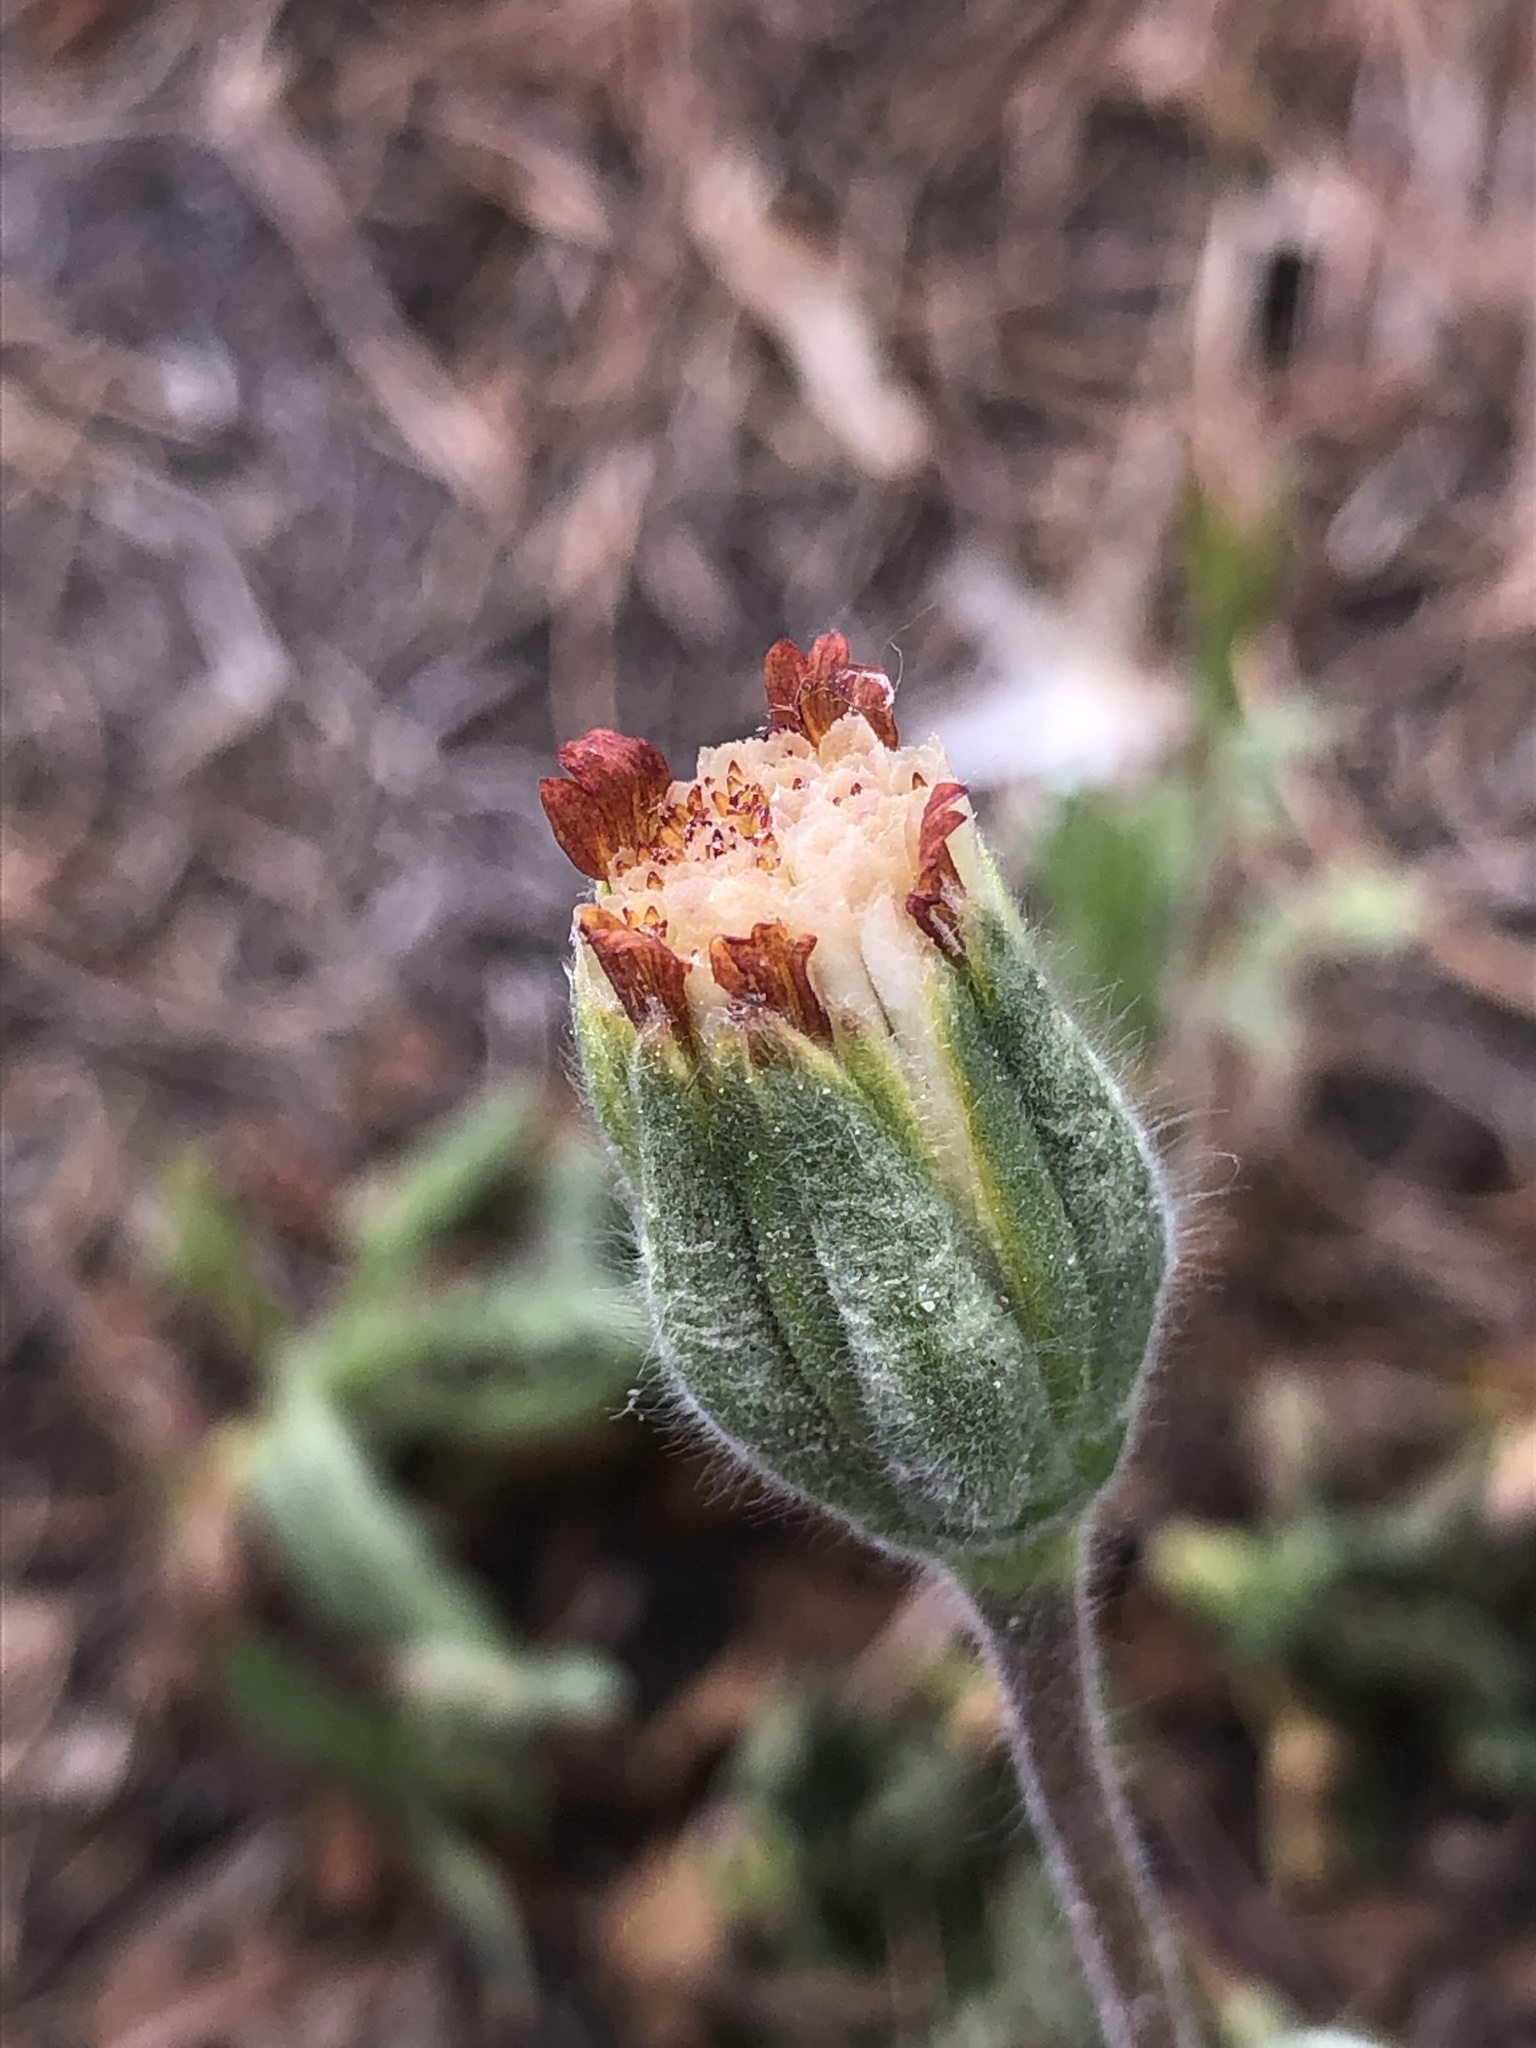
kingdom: Plantae
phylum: Tracheophyta
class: Magnoliopsida
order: Asterales
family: Asteraceae
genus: Achyrachaena
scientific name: Achyrachaena mollis
